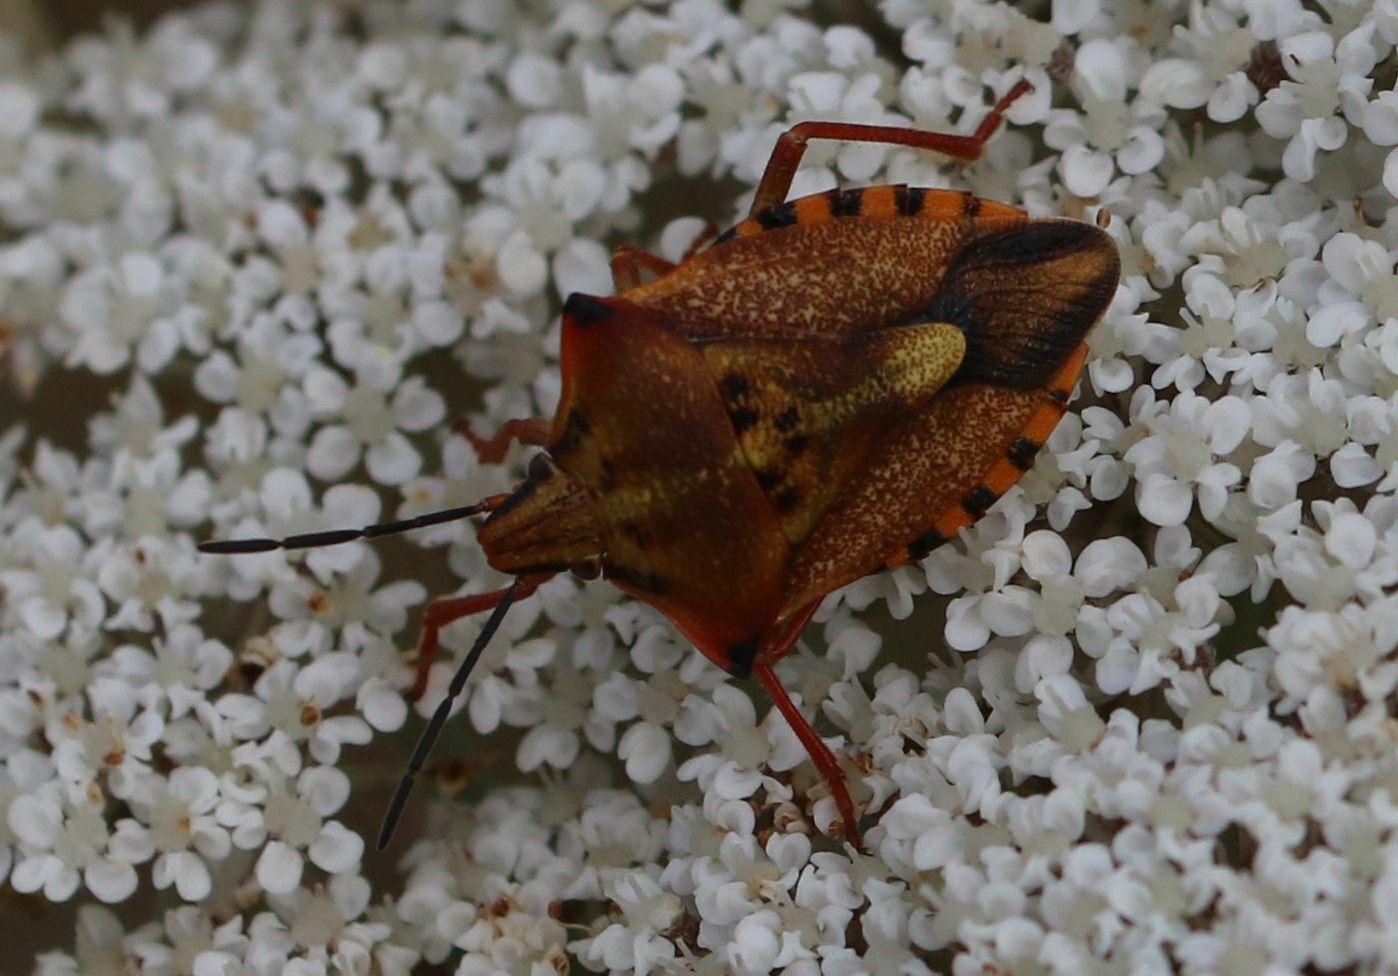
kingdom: Animalia
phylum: Arthropoda
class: Insecta
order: Hemiptera
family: Pentatomidae
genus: Carpocoris
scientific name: Carpocoris mediterraneus
